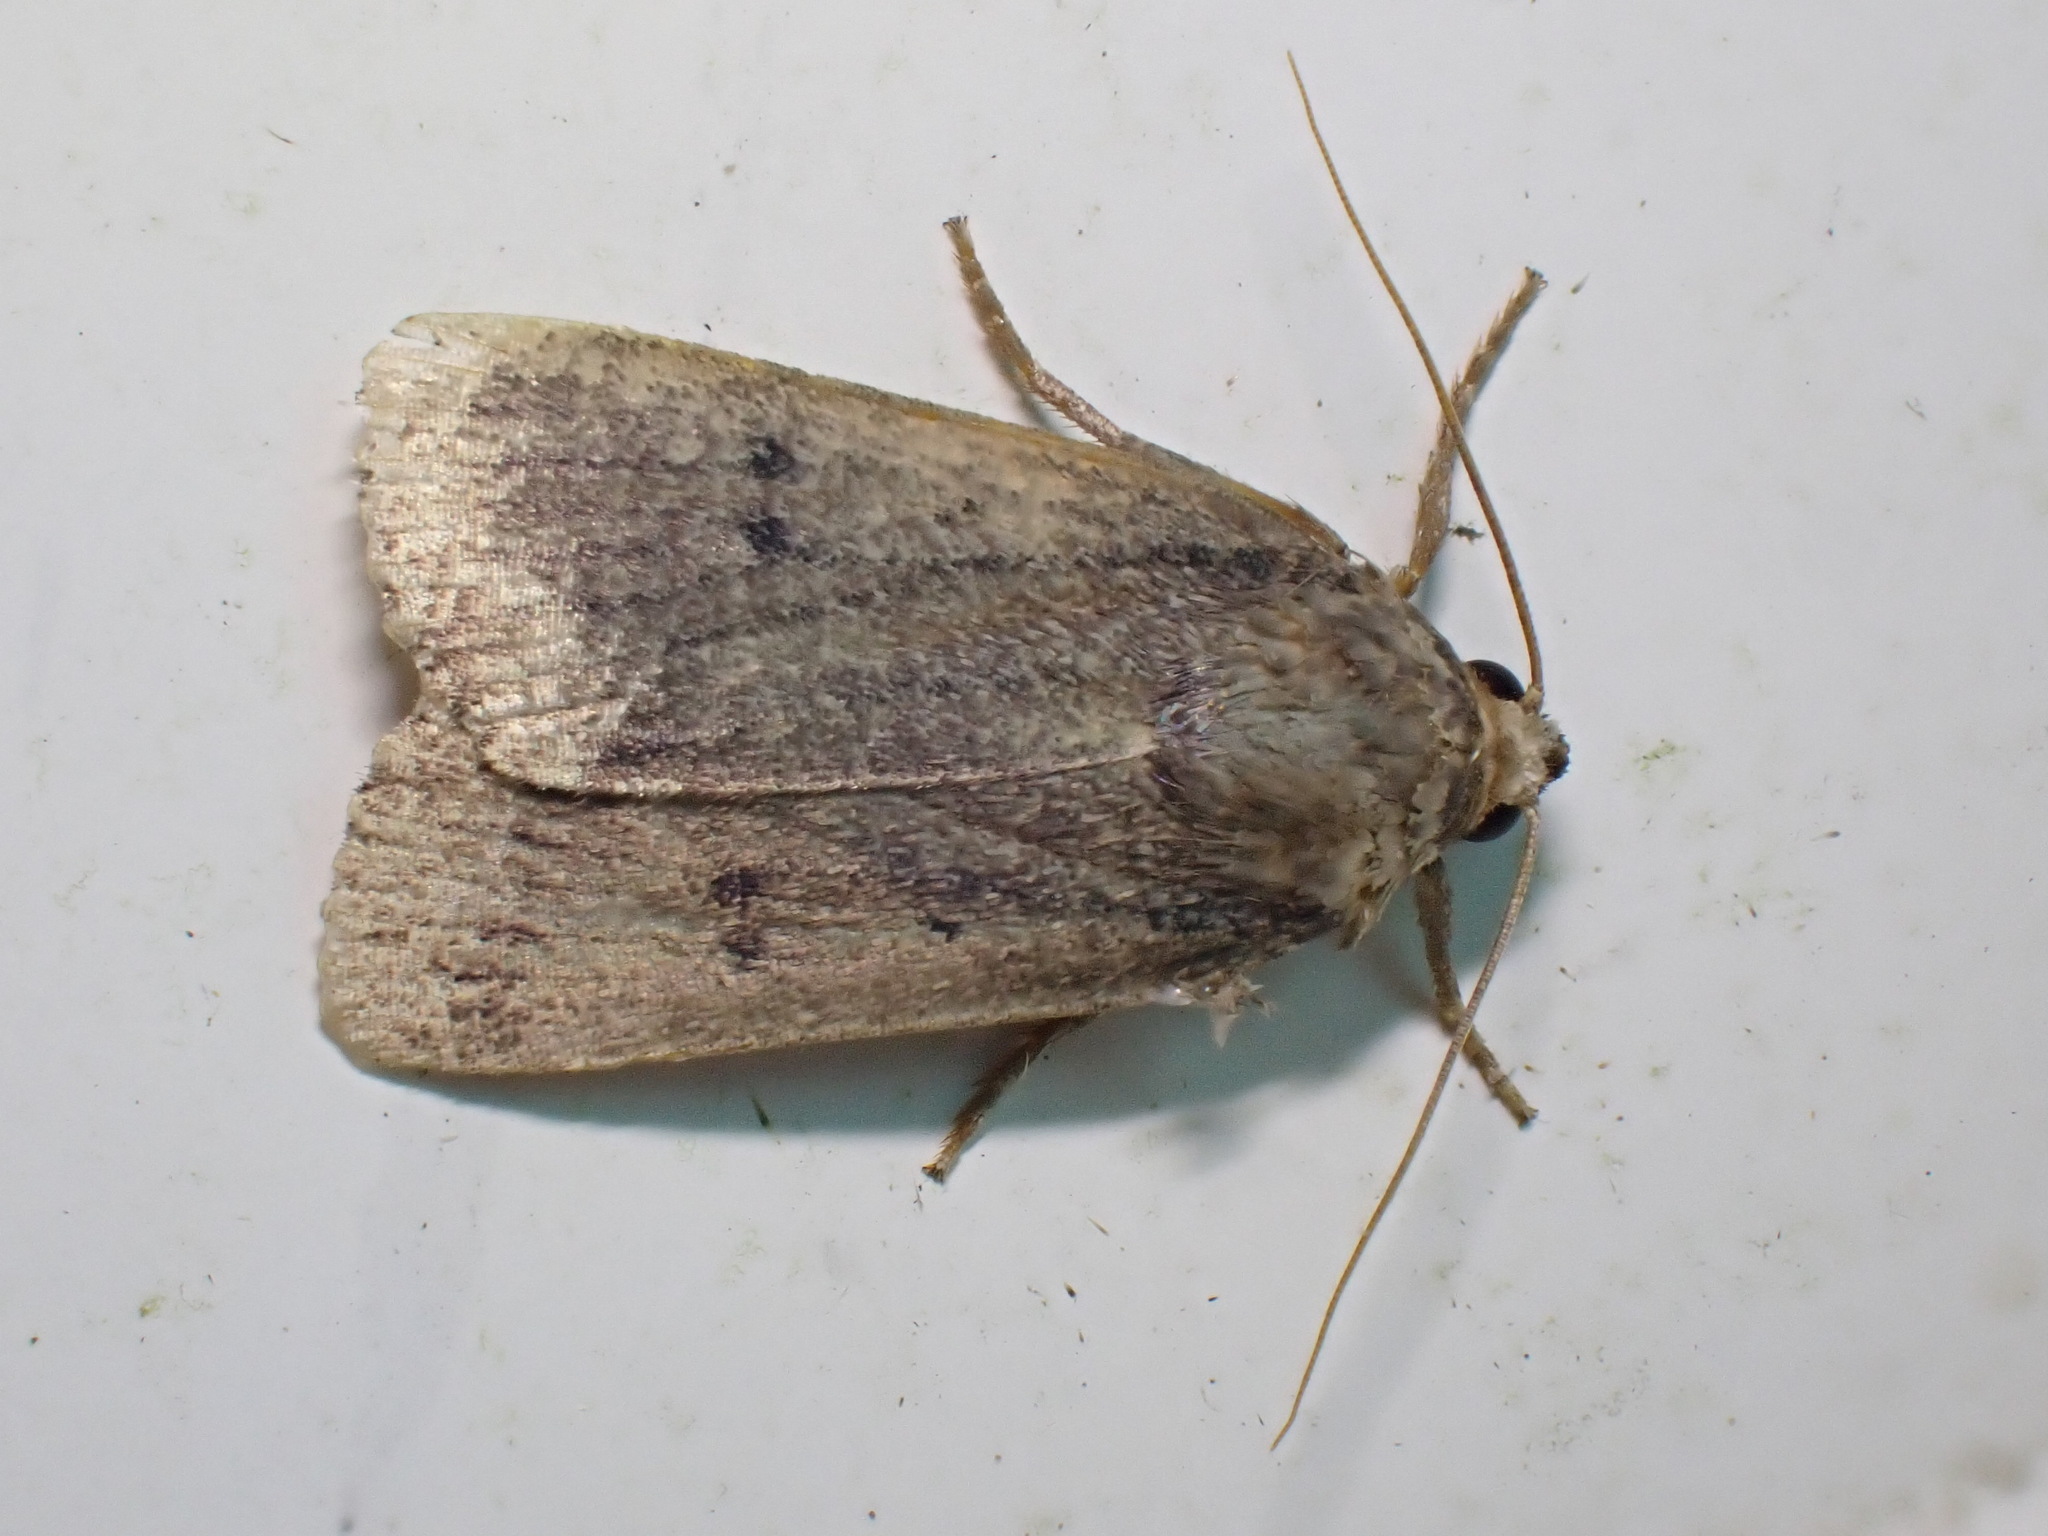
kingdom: Animalia
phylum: Arthropoda
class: Insecta
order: Lepidoptera
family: Noctuidae
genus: Amphipyra
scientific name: Amphipyra tragopoginis
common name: Mouse moth
